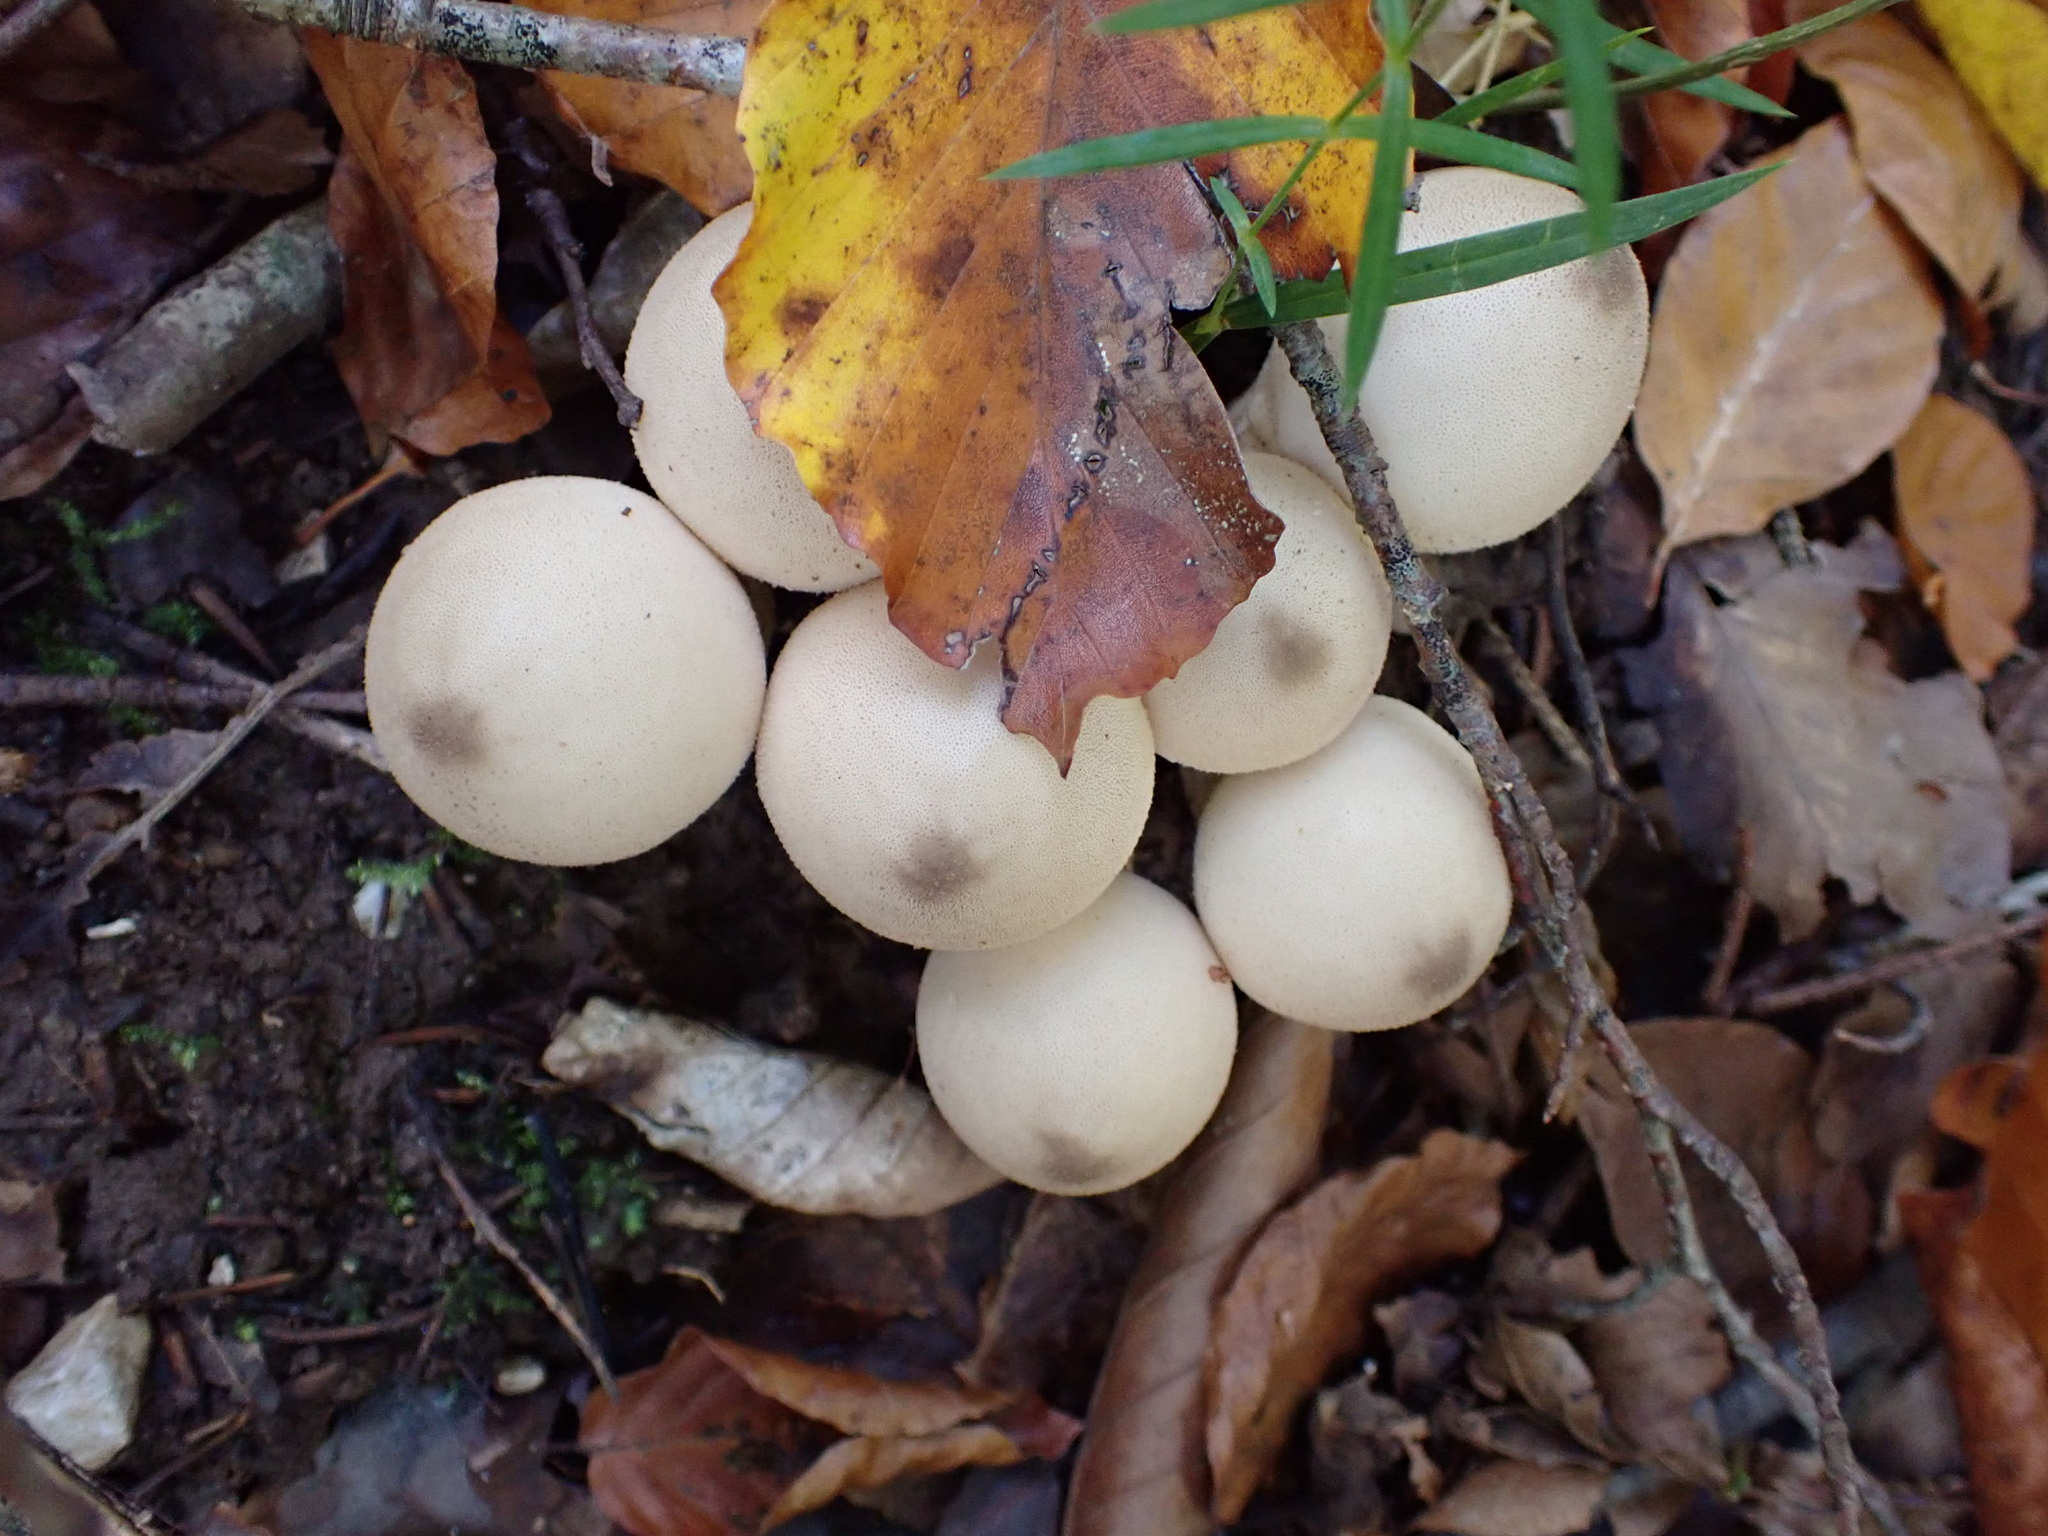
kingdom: Fungi
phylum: Basidiomycota
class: Agaricomycetes
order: Agaricales
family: Lycoperdaceae
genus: Apioperdon
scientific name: Apioperdon pyriforme
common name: Pear-shaped puffball
